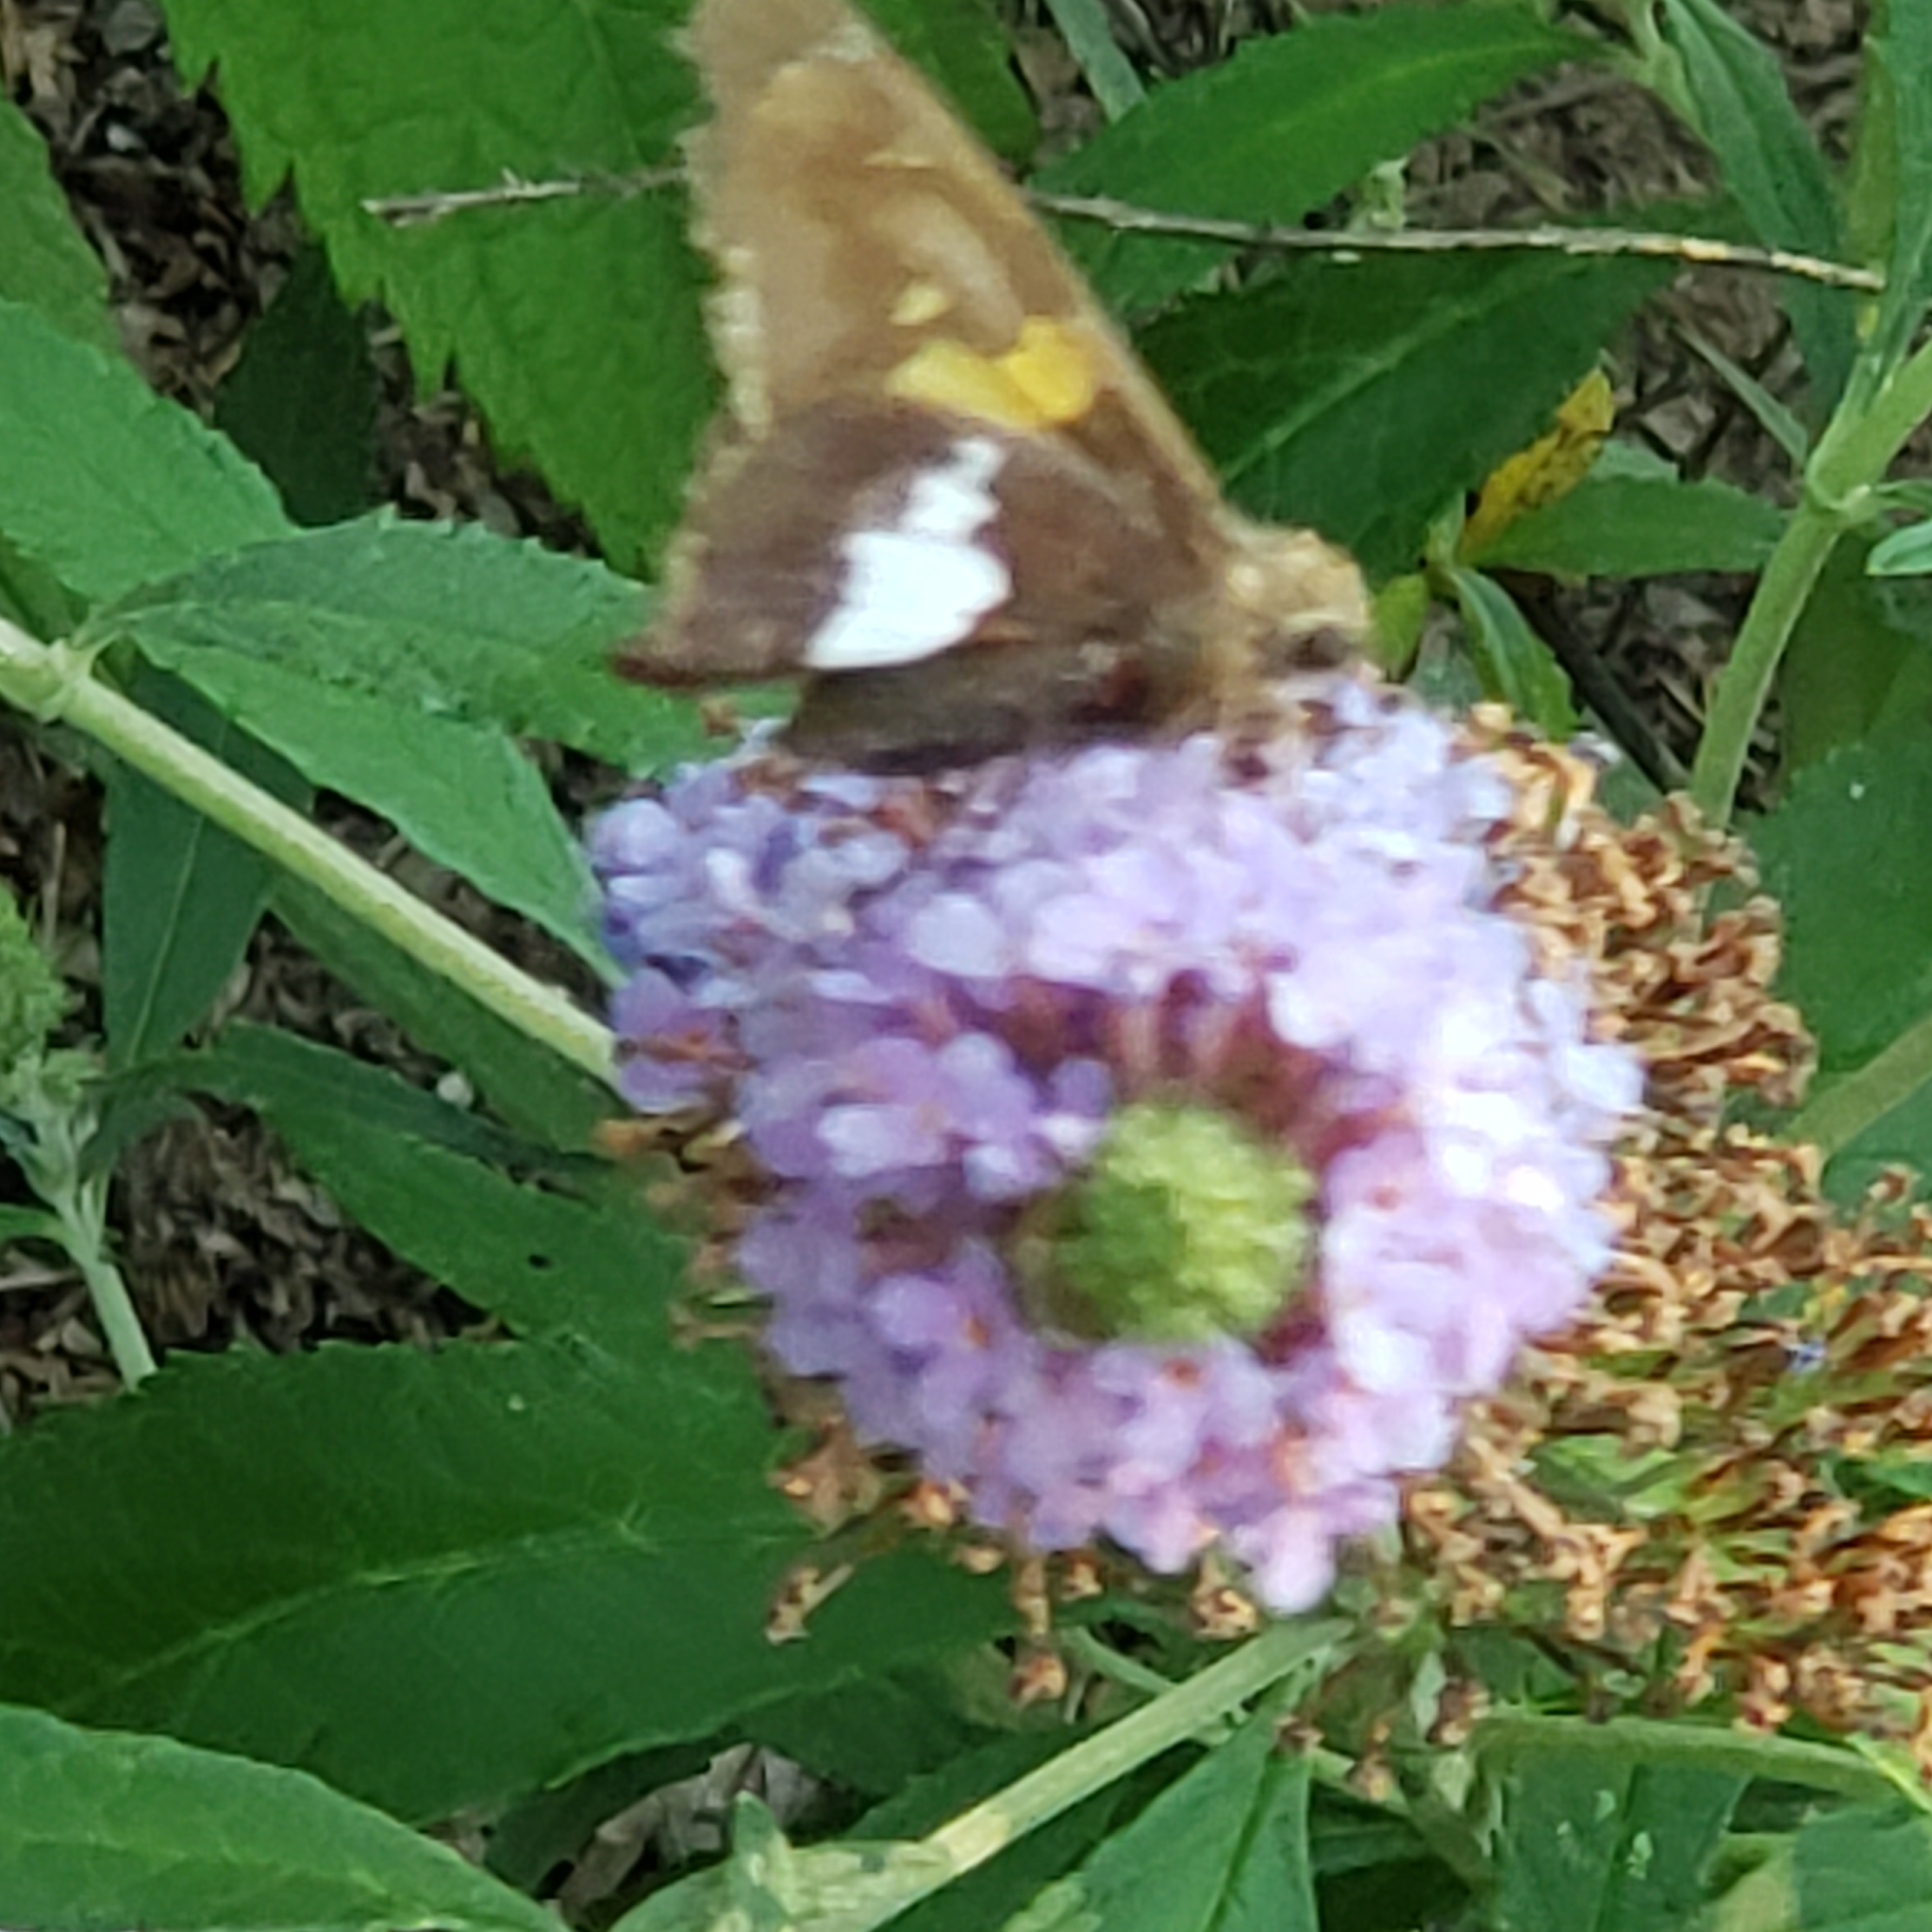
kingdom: Animalia
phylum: Arthropoda
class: Insecta
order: Lepidoptera
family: Hesperiidae
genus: Epargyreus
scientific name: Epargyreus clarus
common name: Silver-spotted skipper
